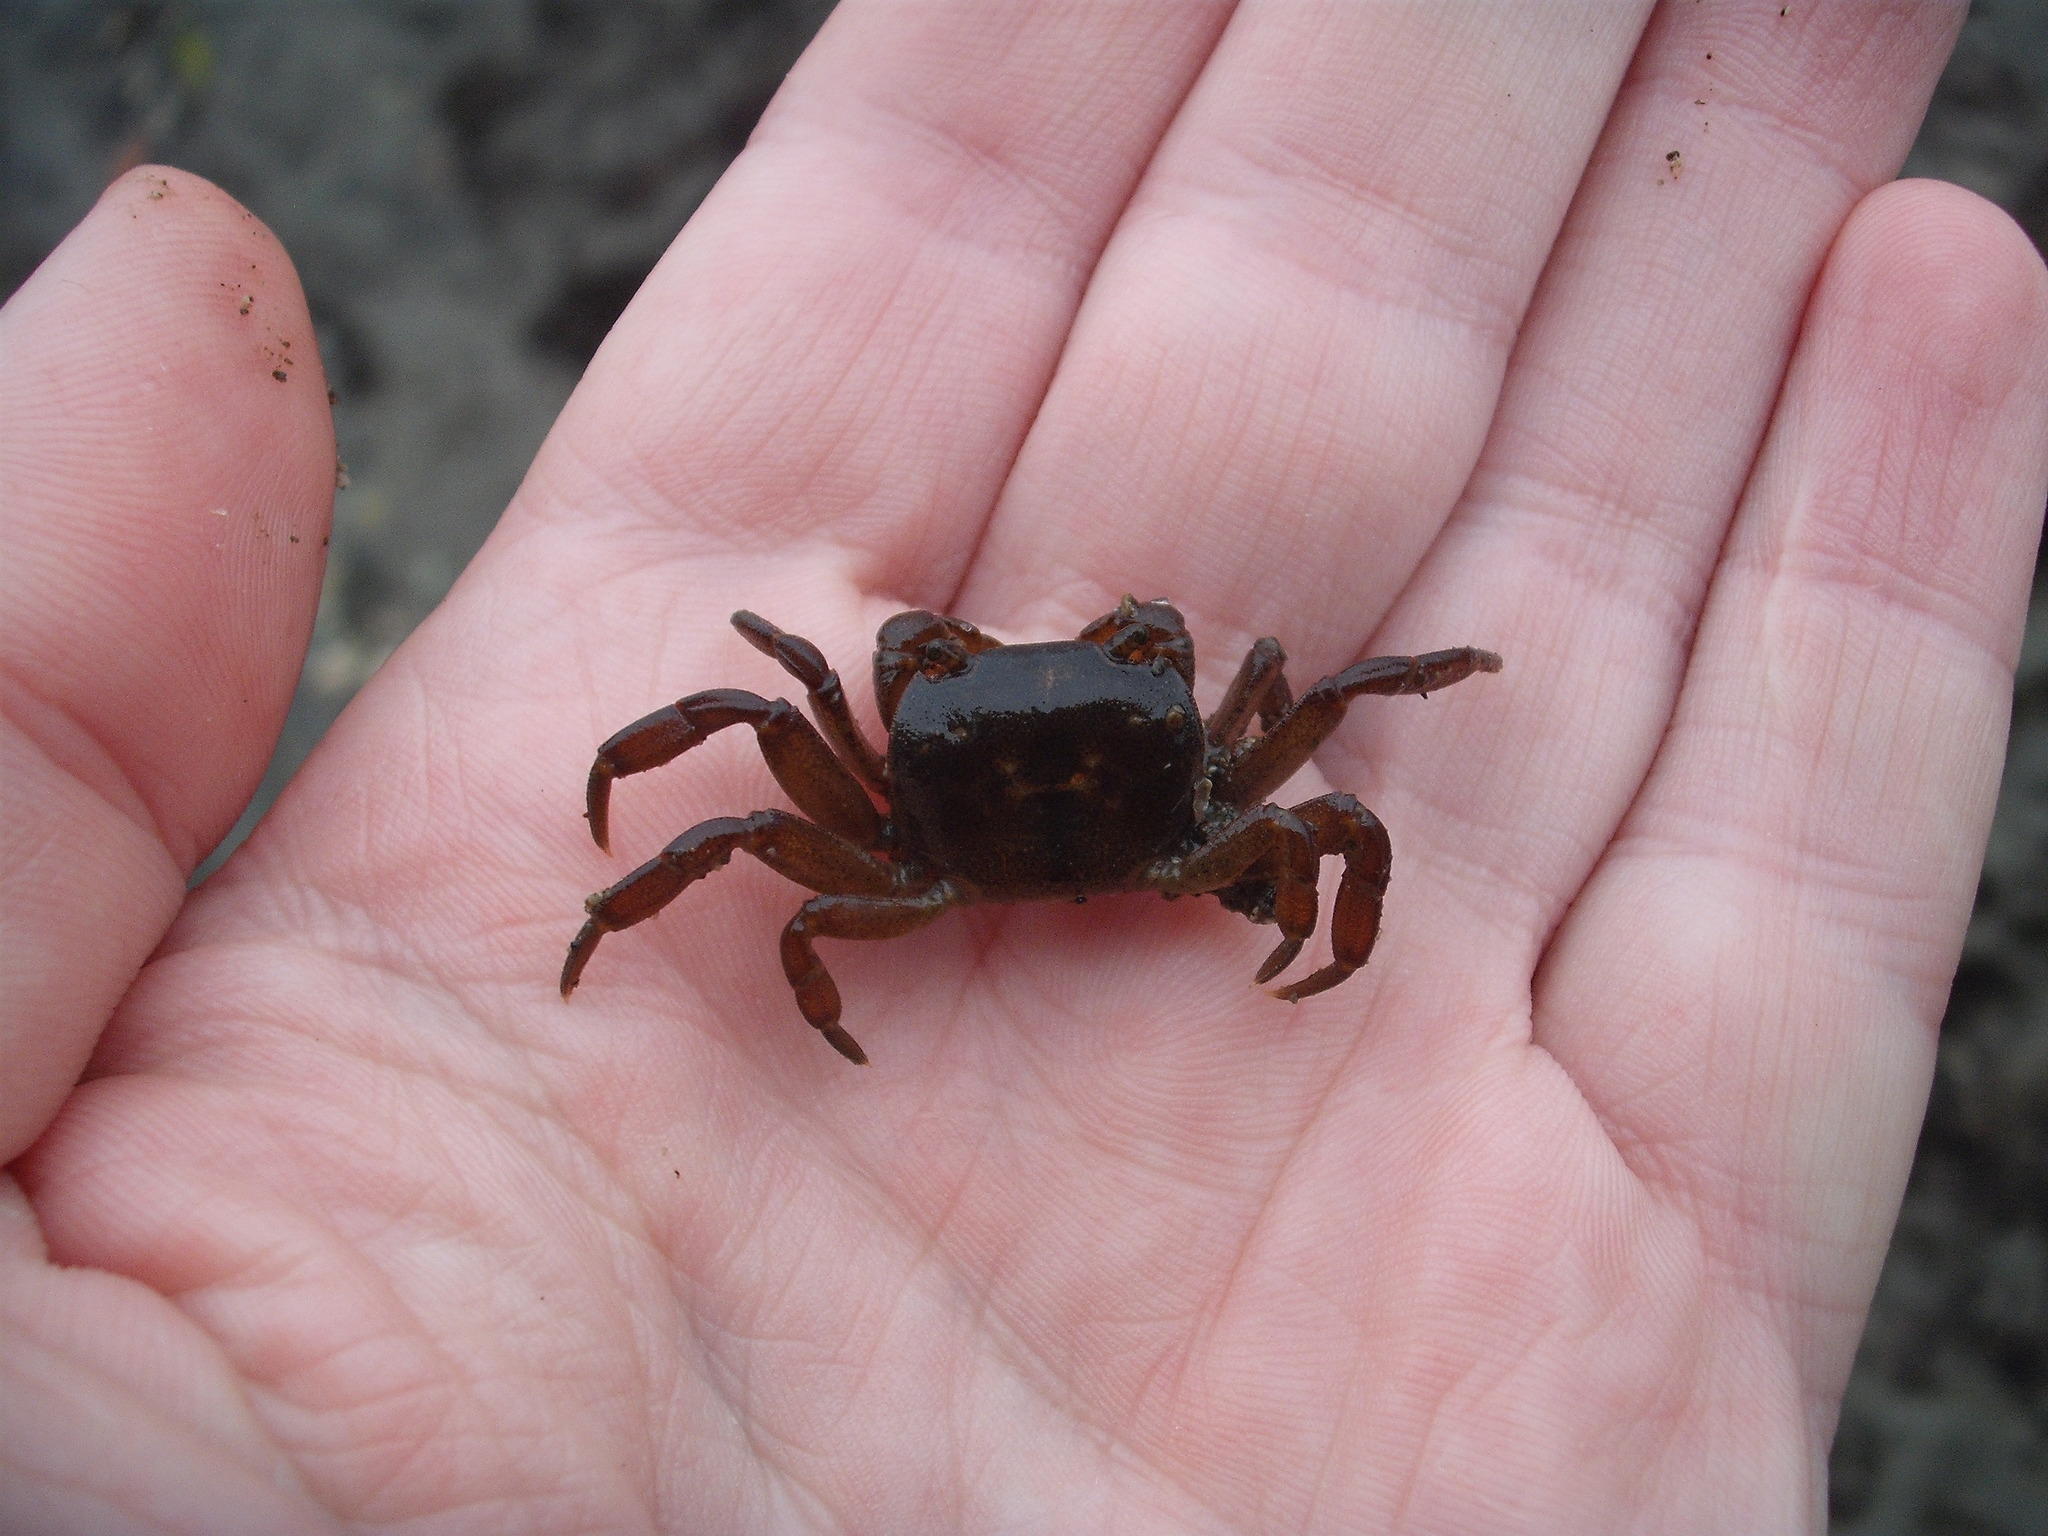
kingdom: Animalia
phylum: Arthropoda
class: Malacostraca
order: Decapoda
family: Varunidae
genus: Cyclograpsus
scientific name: Cyclograpsus lavauxi
